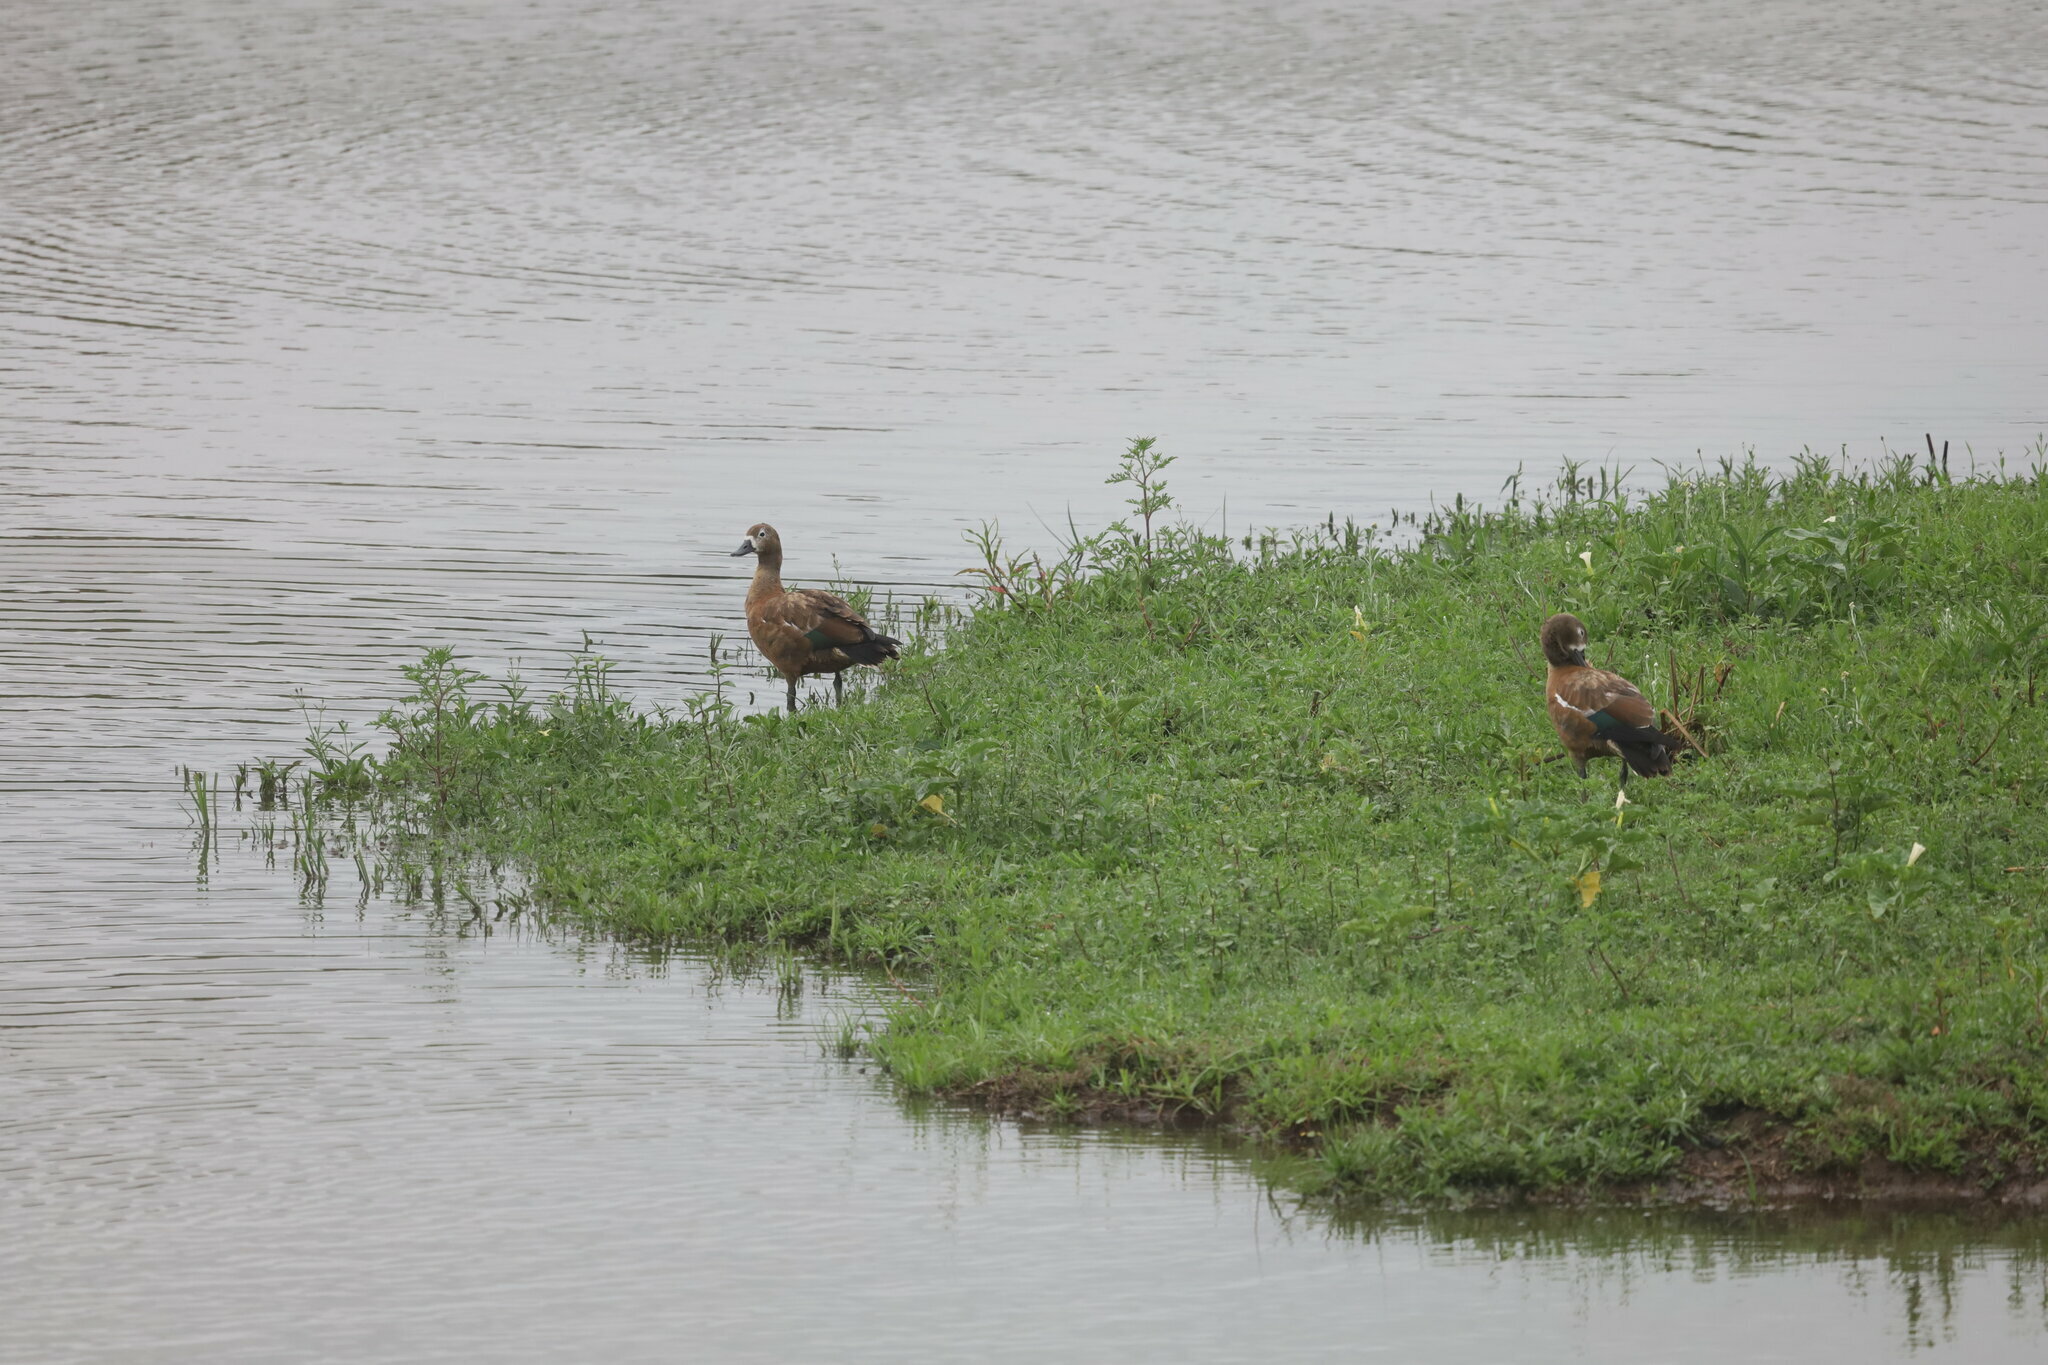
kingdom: Animalia
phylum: Chordata
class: Aves
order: Anseriformes
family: Anatidae
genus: Tadorna
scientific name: Tadorna cana
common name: South african shelduck
